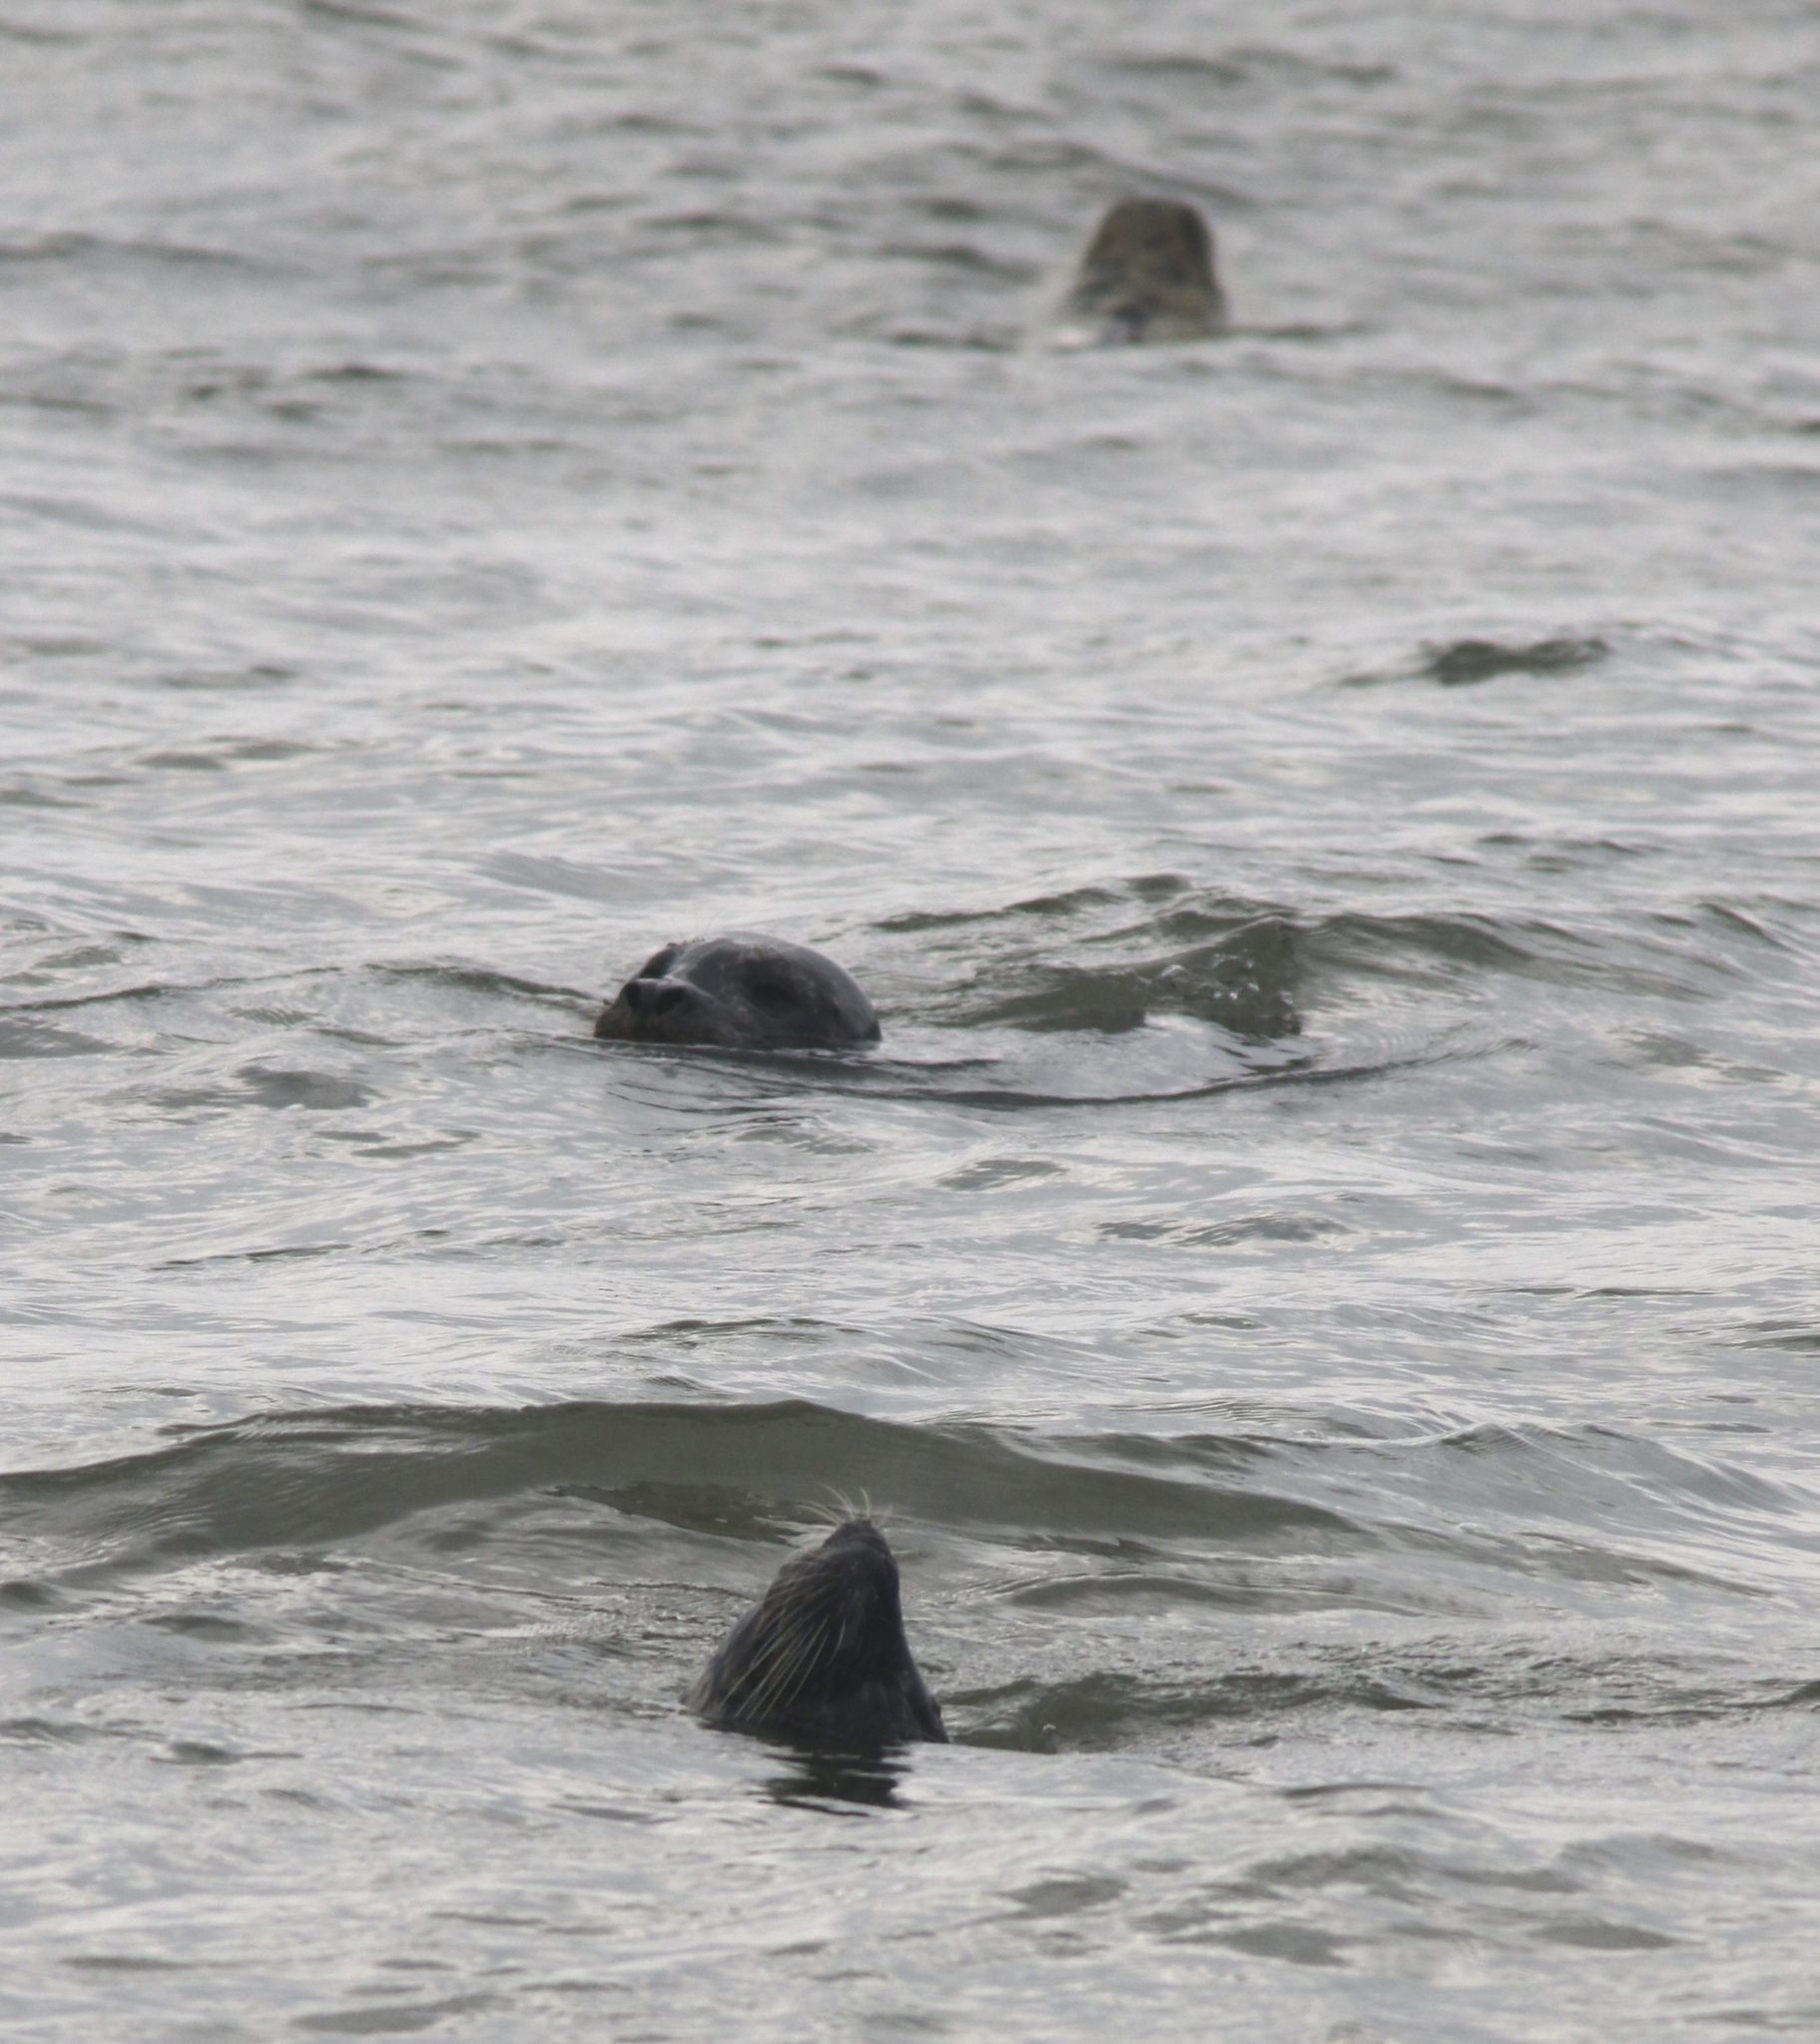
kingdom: Animalia
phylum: Chordata
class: Mammalia
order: Carnivora
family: Phocidae
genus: Phoca
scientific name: Phoca vitulina
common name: Harbor seal
